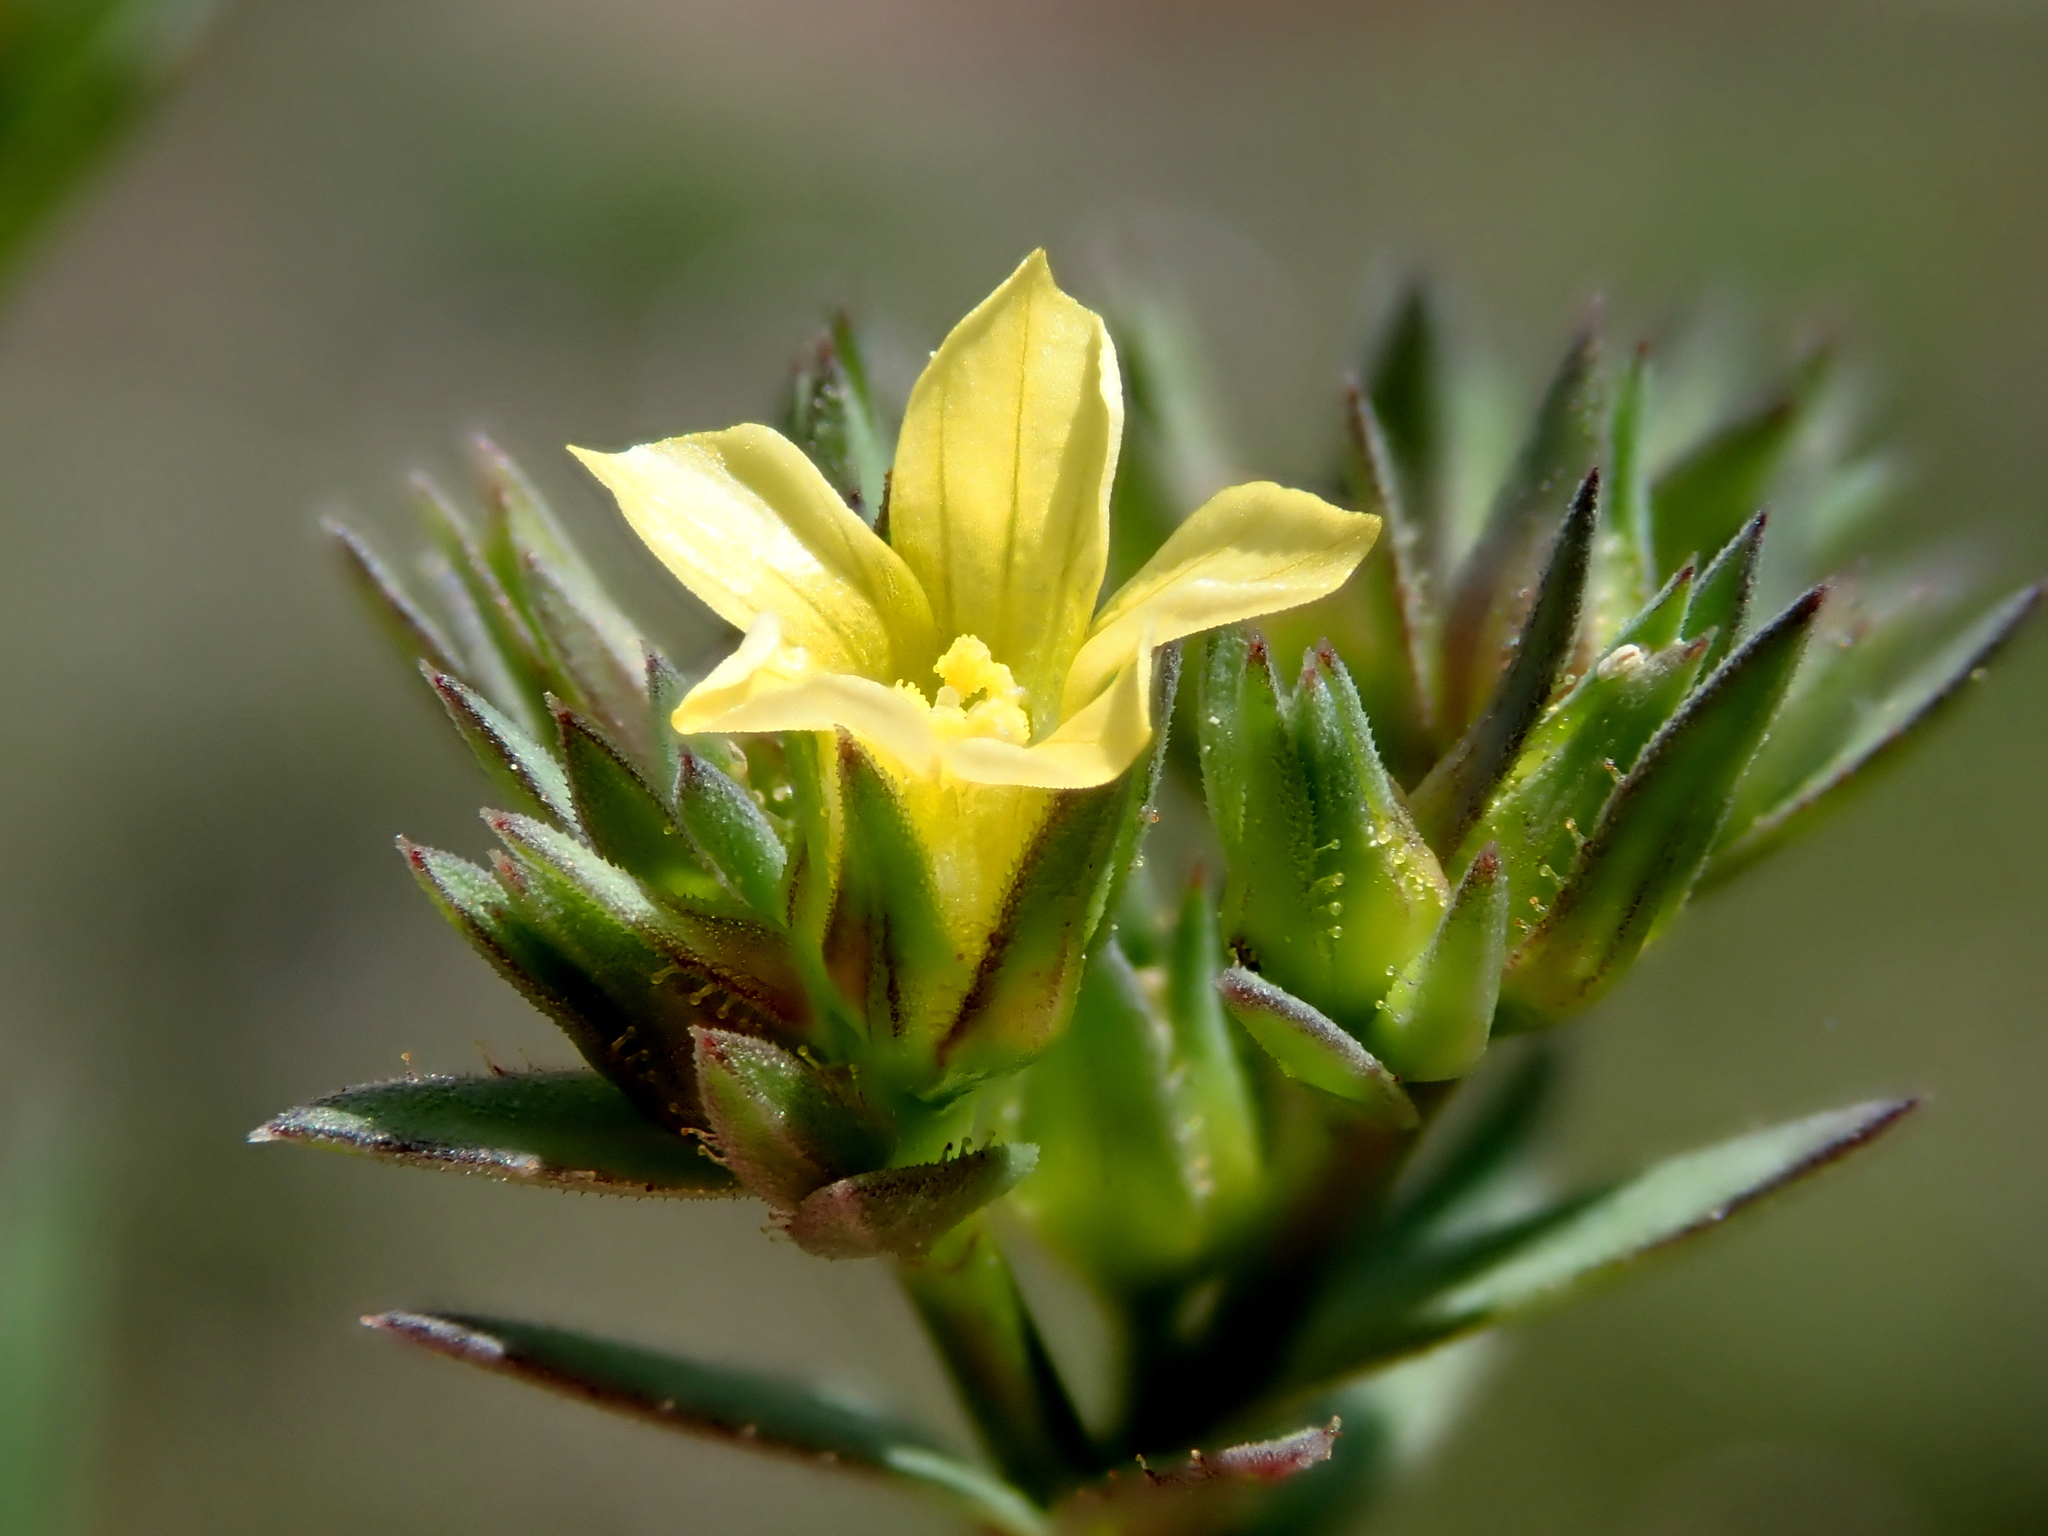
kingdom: Plantae
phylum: Tracheophyta
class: Magnoliopsida
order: Malpighiales
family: Linaceae
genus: Linum
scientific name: Linum strictum
